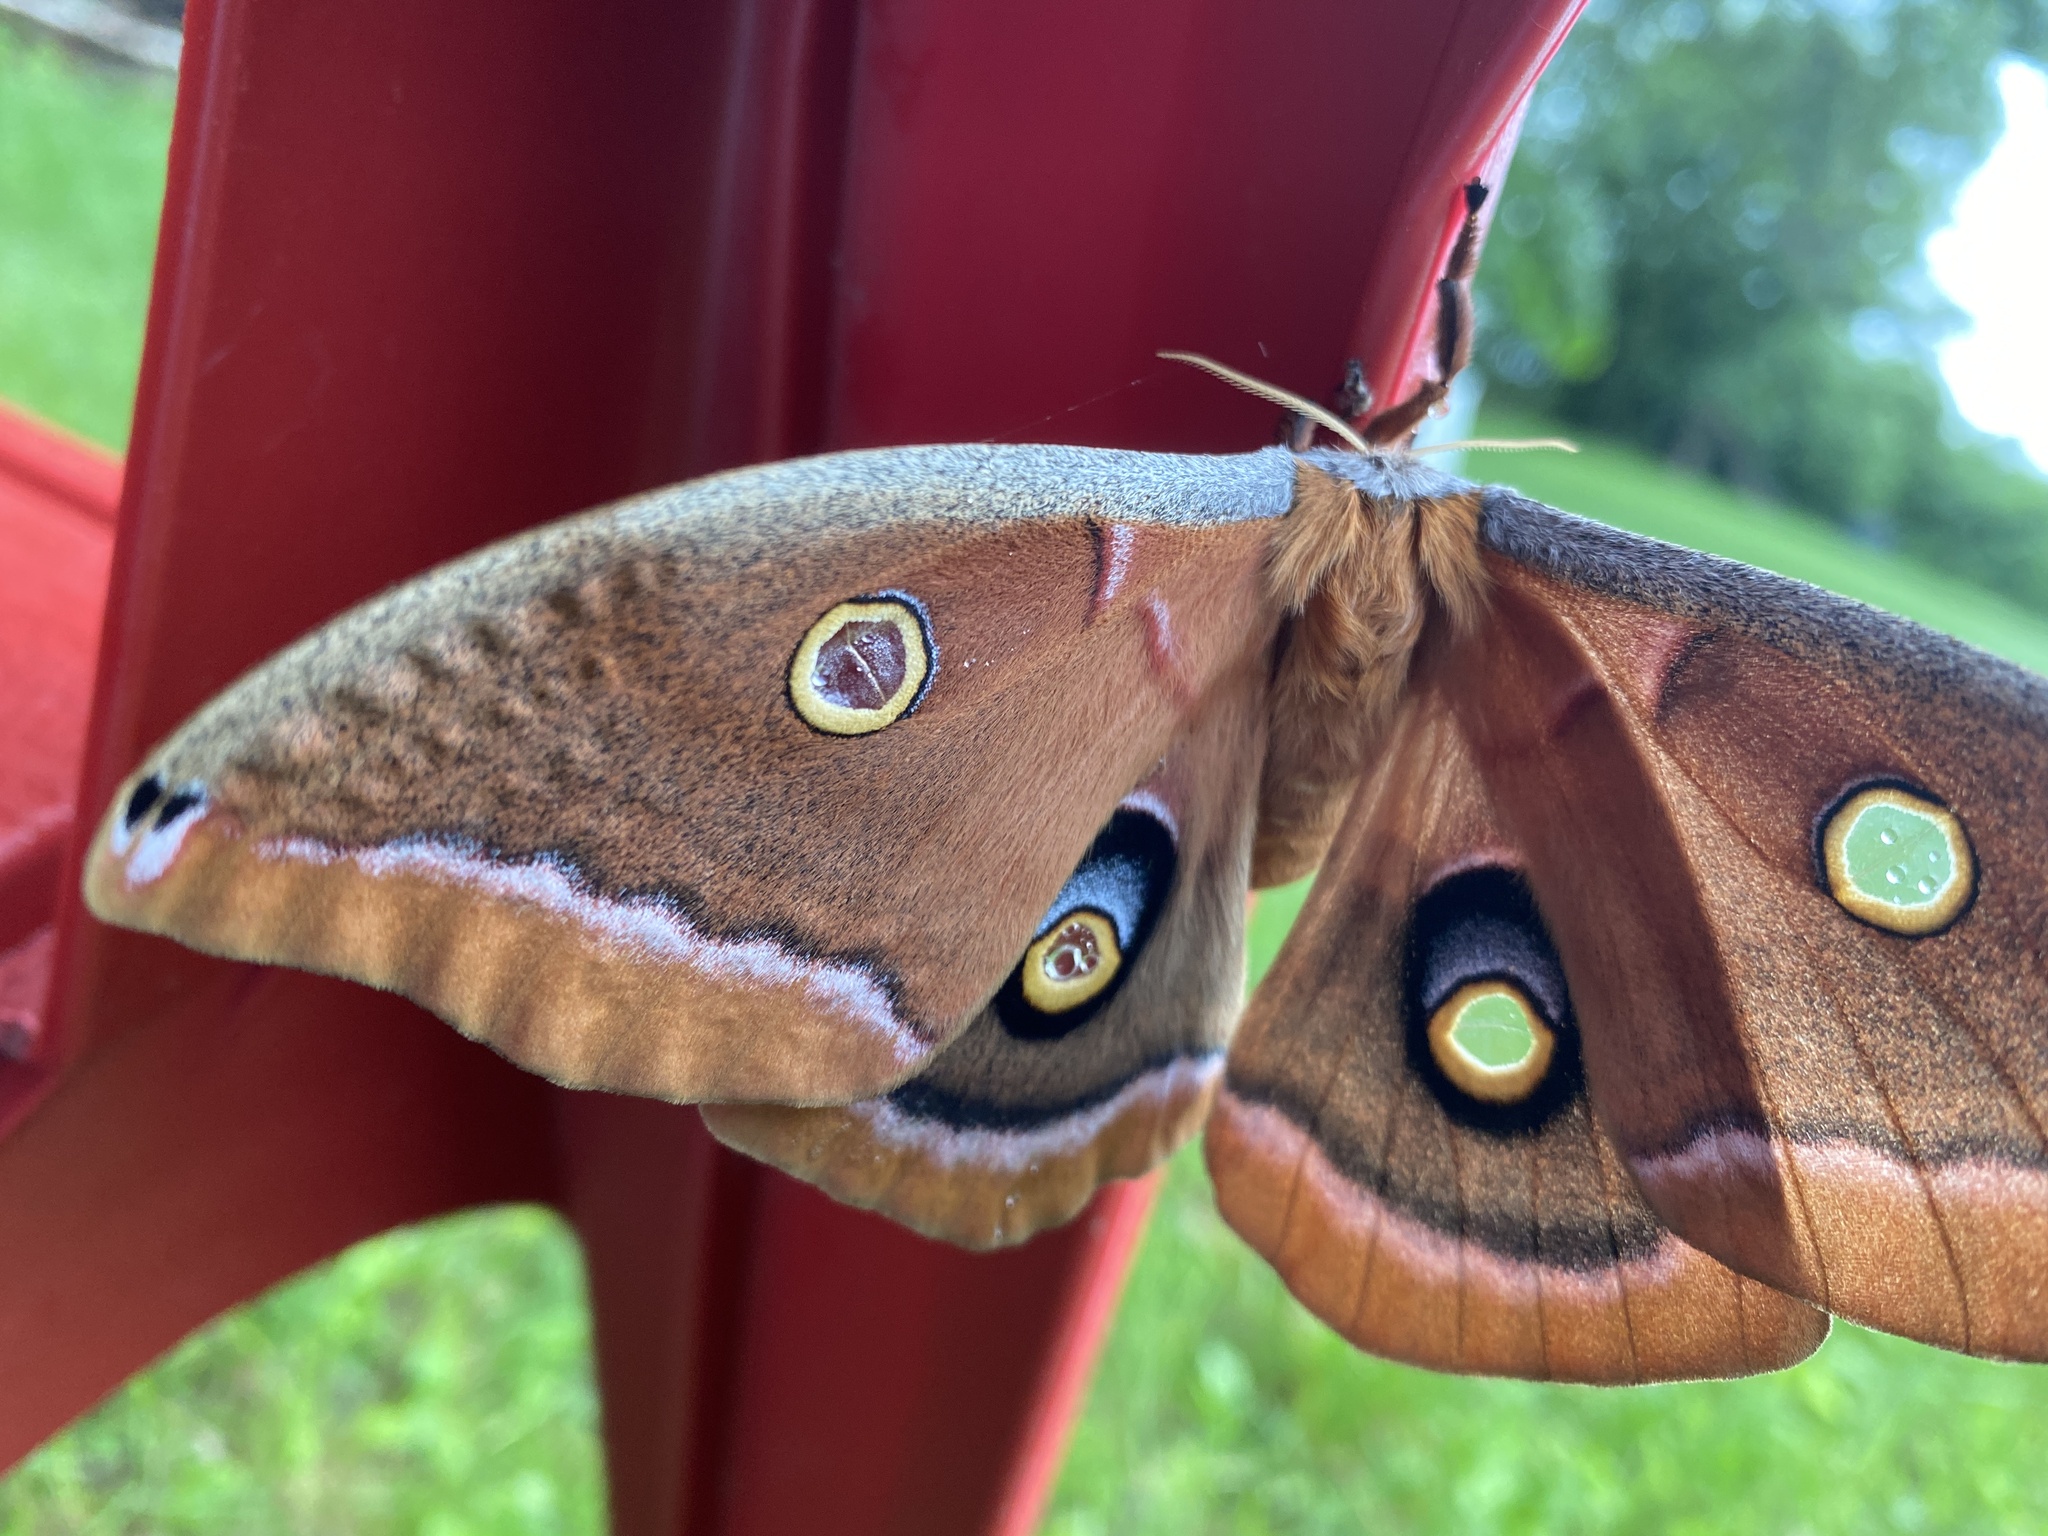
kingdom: Animalia
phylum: Arthropoda
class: Insecta
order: Lepidoptera
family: Saturniidae
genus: Antheraea
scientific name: Antheraea polyphemus
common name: Polyphemus moth
